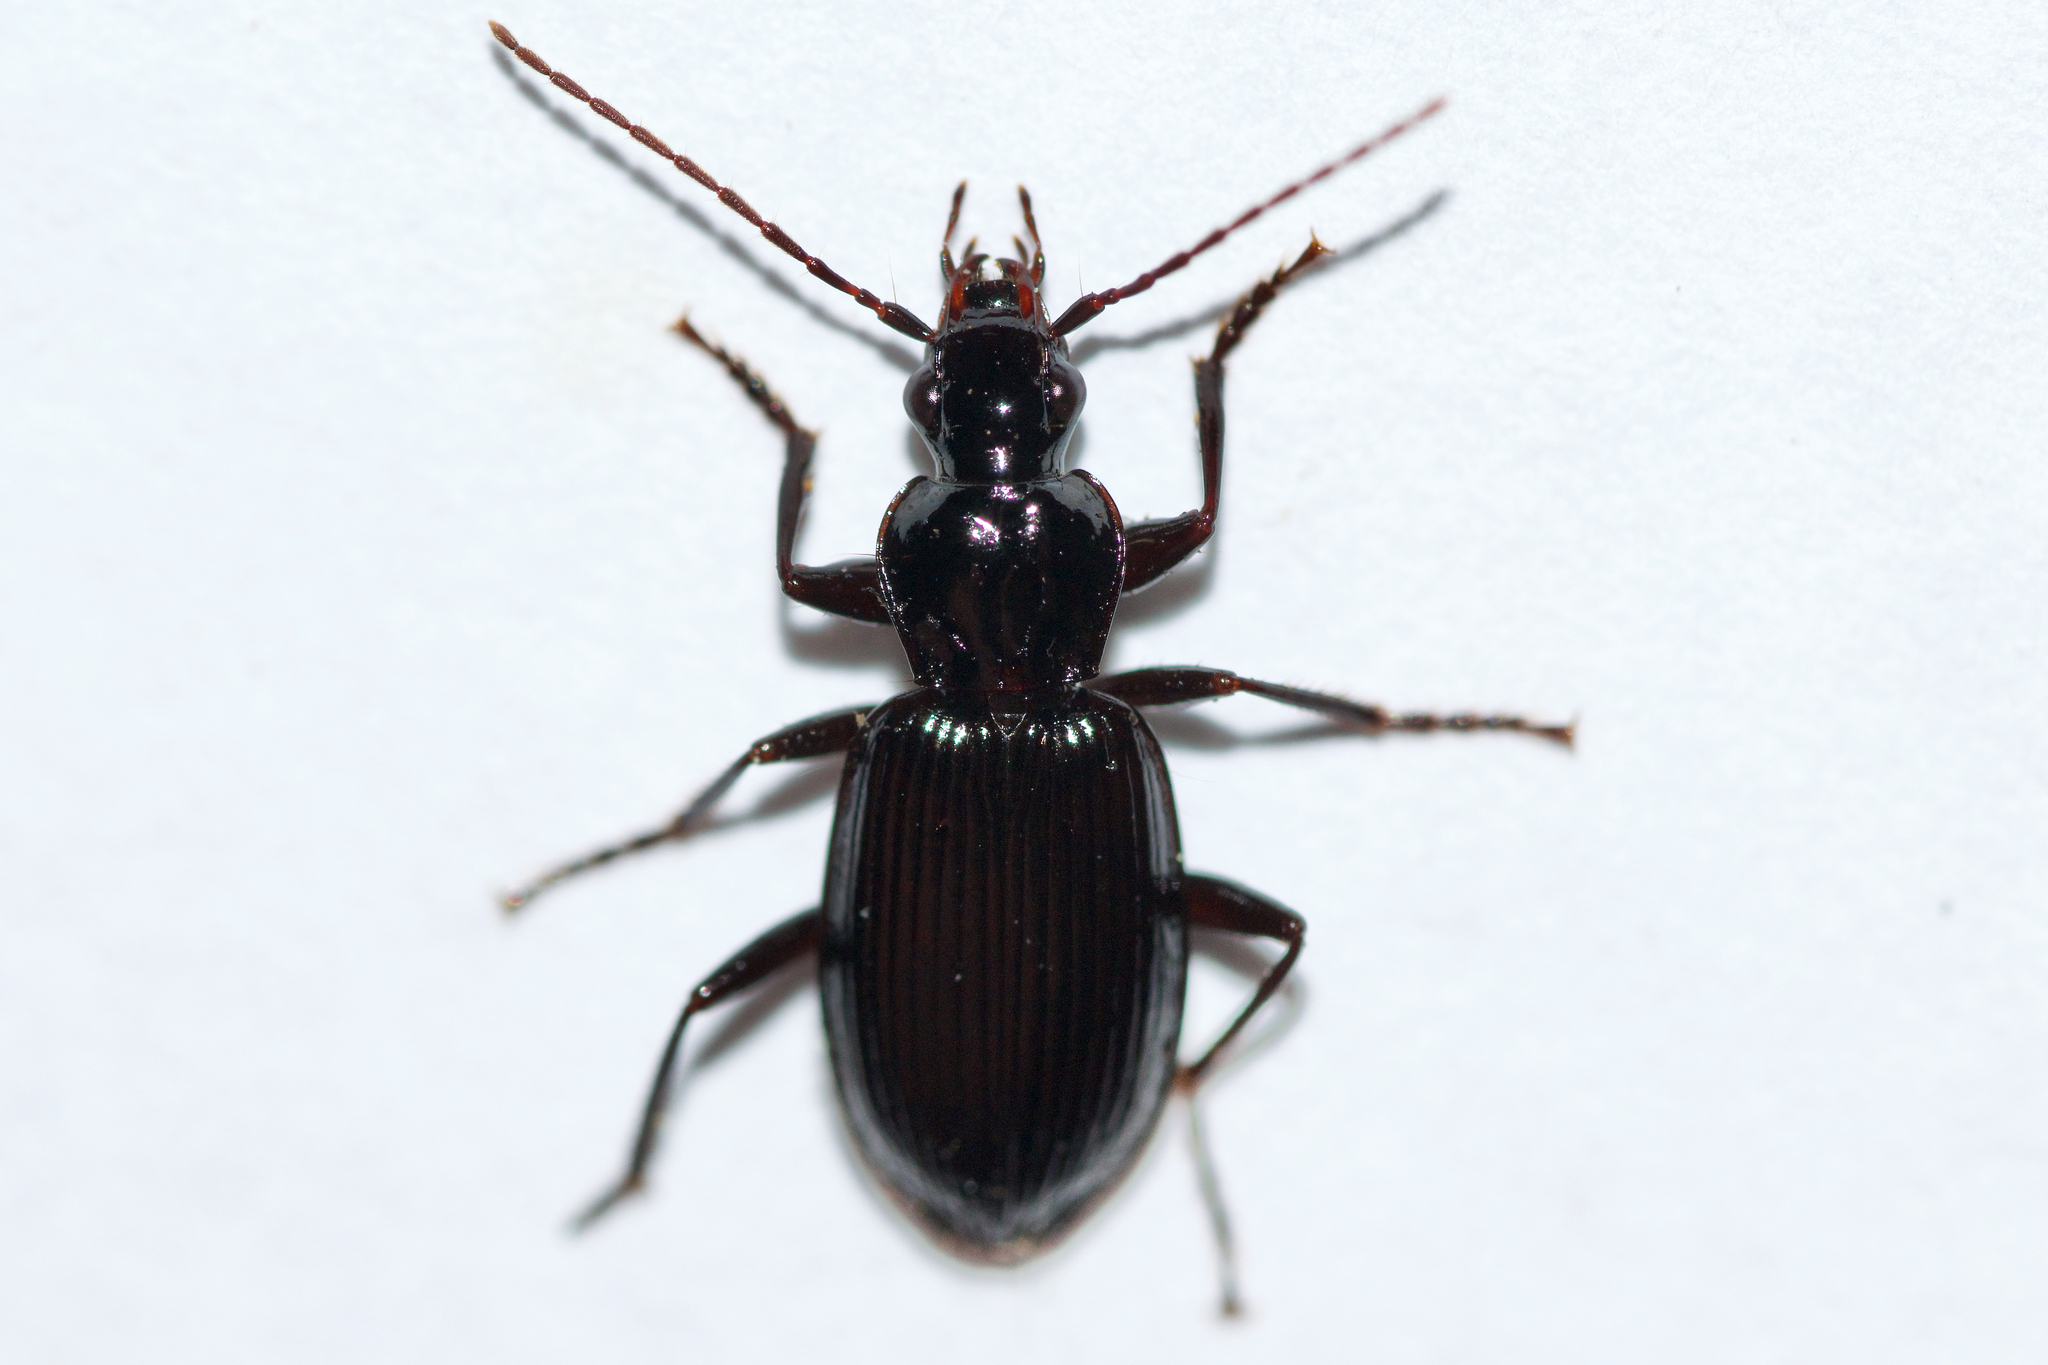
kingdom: Animalia
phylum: Arthropoda
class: Insecta
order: Coleoptera
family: Carabidae
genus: Platynus
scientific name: Platynus decentis
